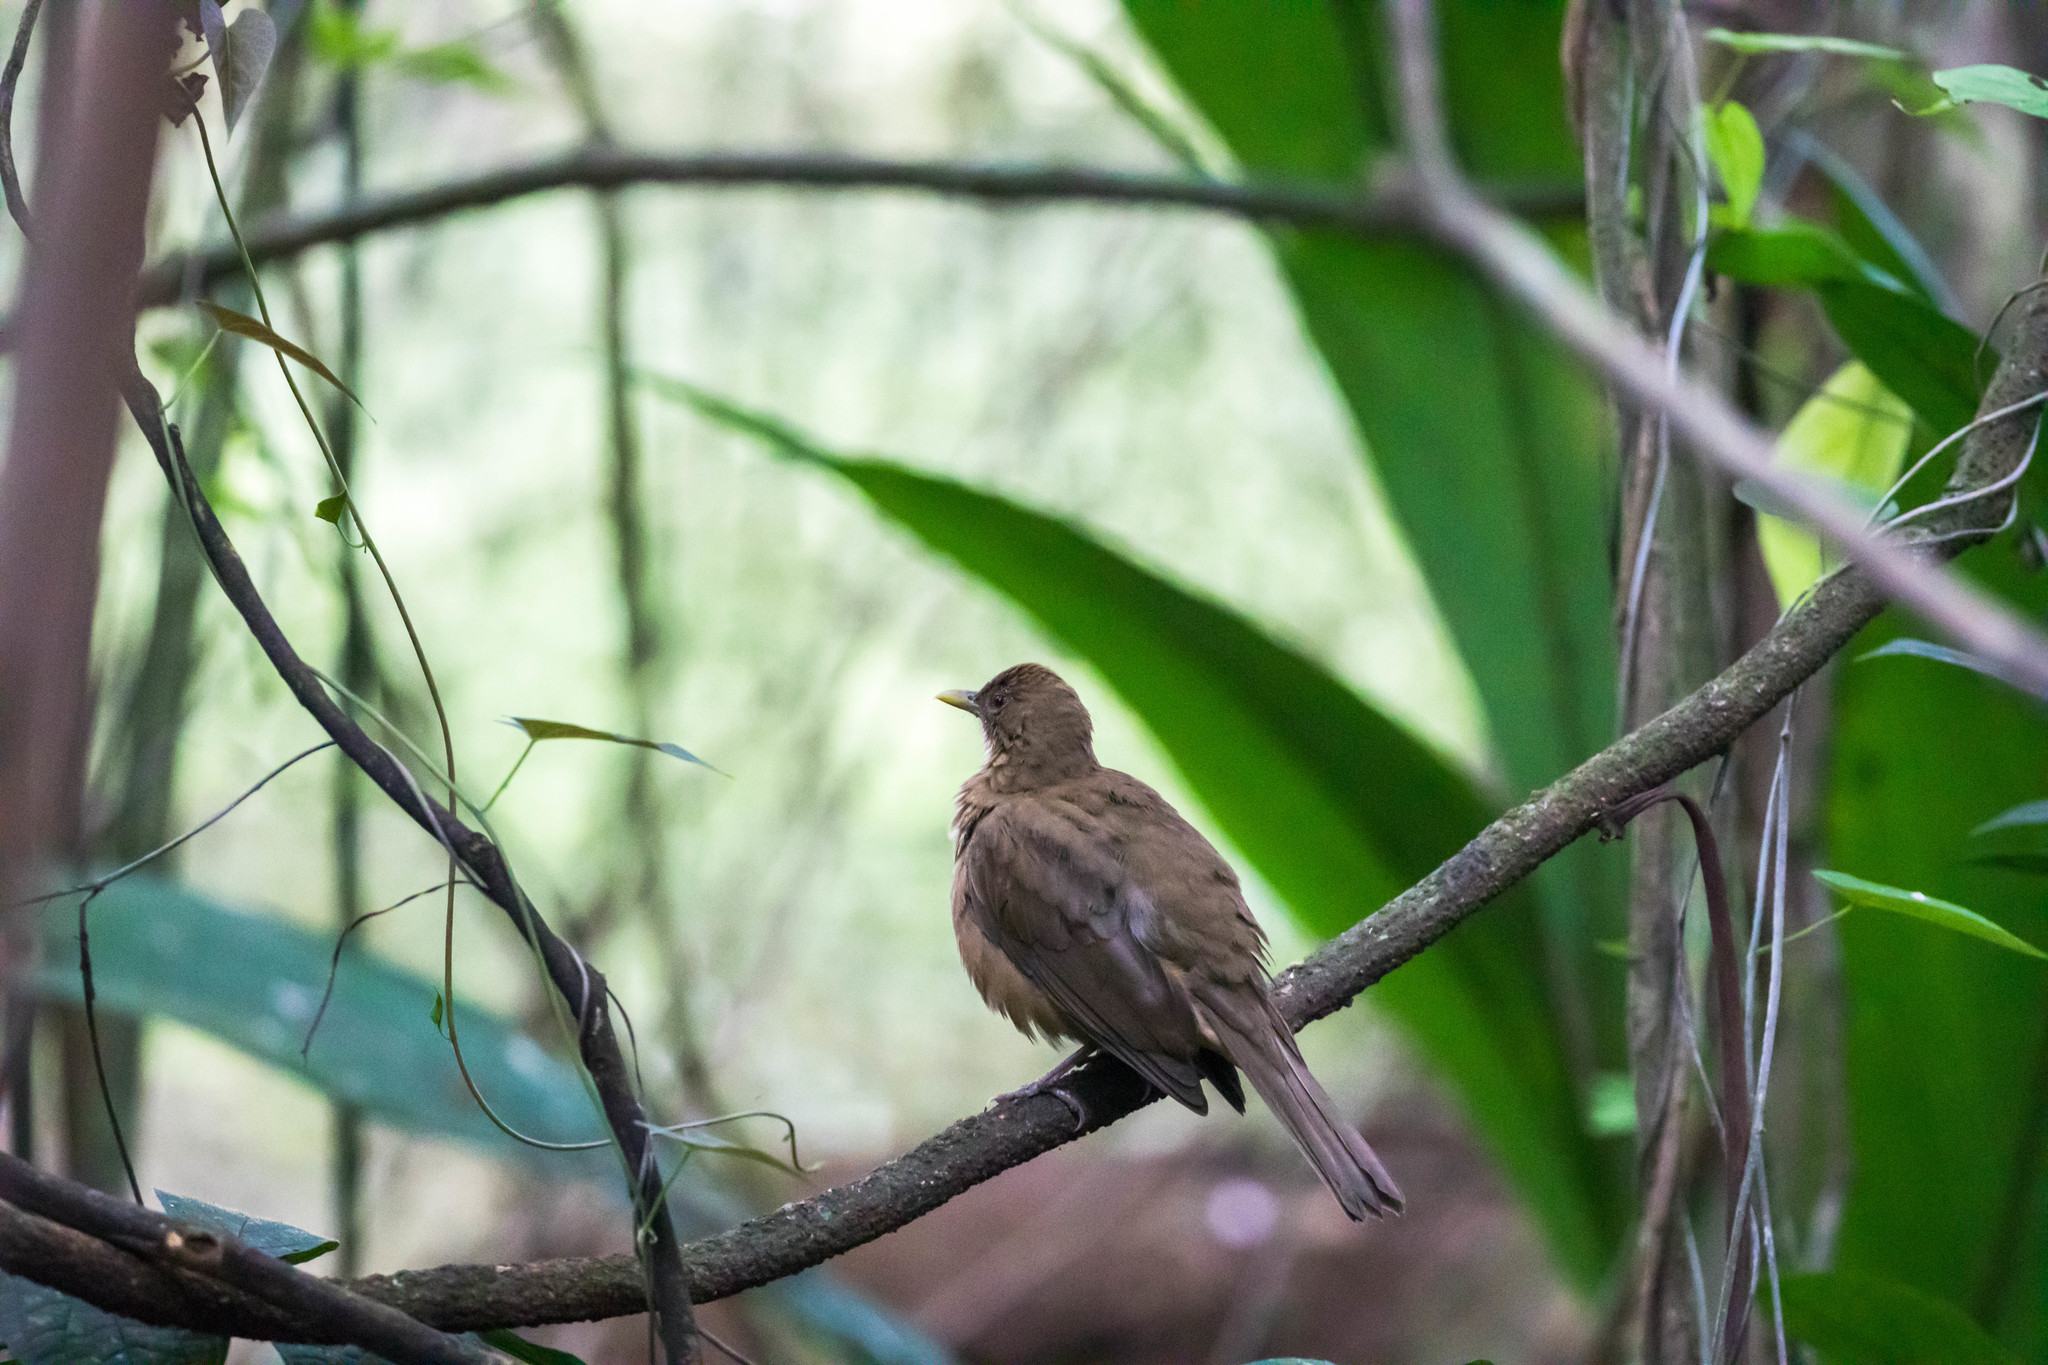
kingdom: Animalia
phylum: Chordata
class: Aves
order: Passeriformes
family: Turdidae
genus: Turdus
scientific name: Turdus grayi
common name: Clay-colored thrush
